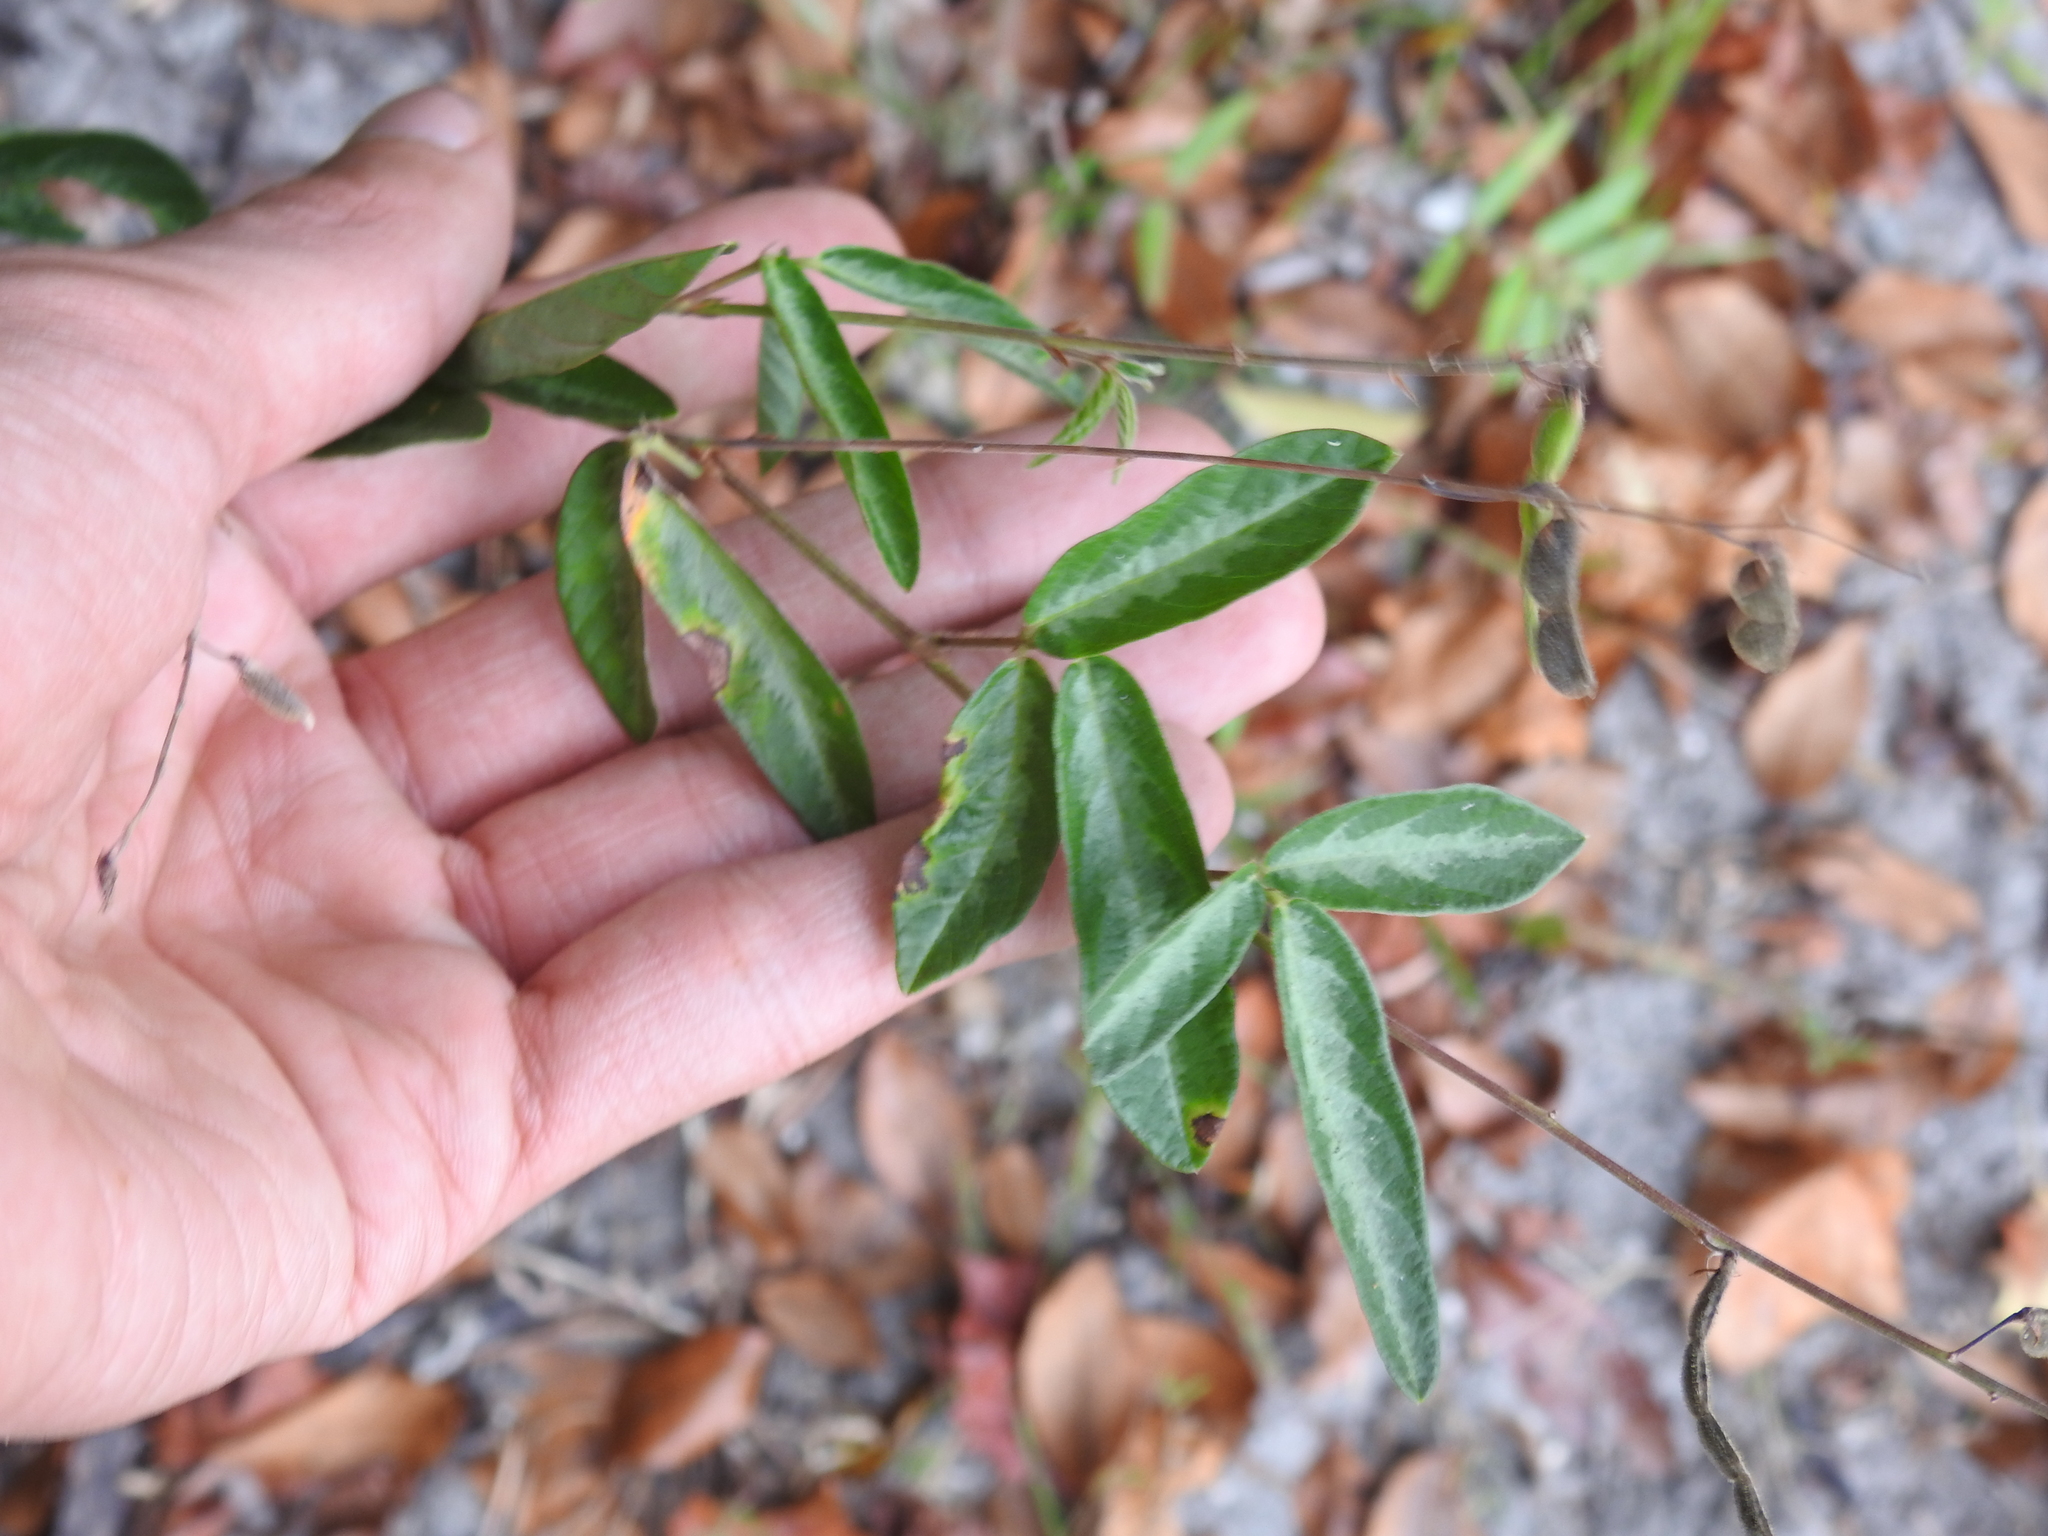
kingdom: Plantae
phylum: Tracheophyta
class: Magnoliopsida
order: Fabales
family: Fabaceae
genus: Desmodium
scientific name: Desmodium incanum
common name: Tickclover
